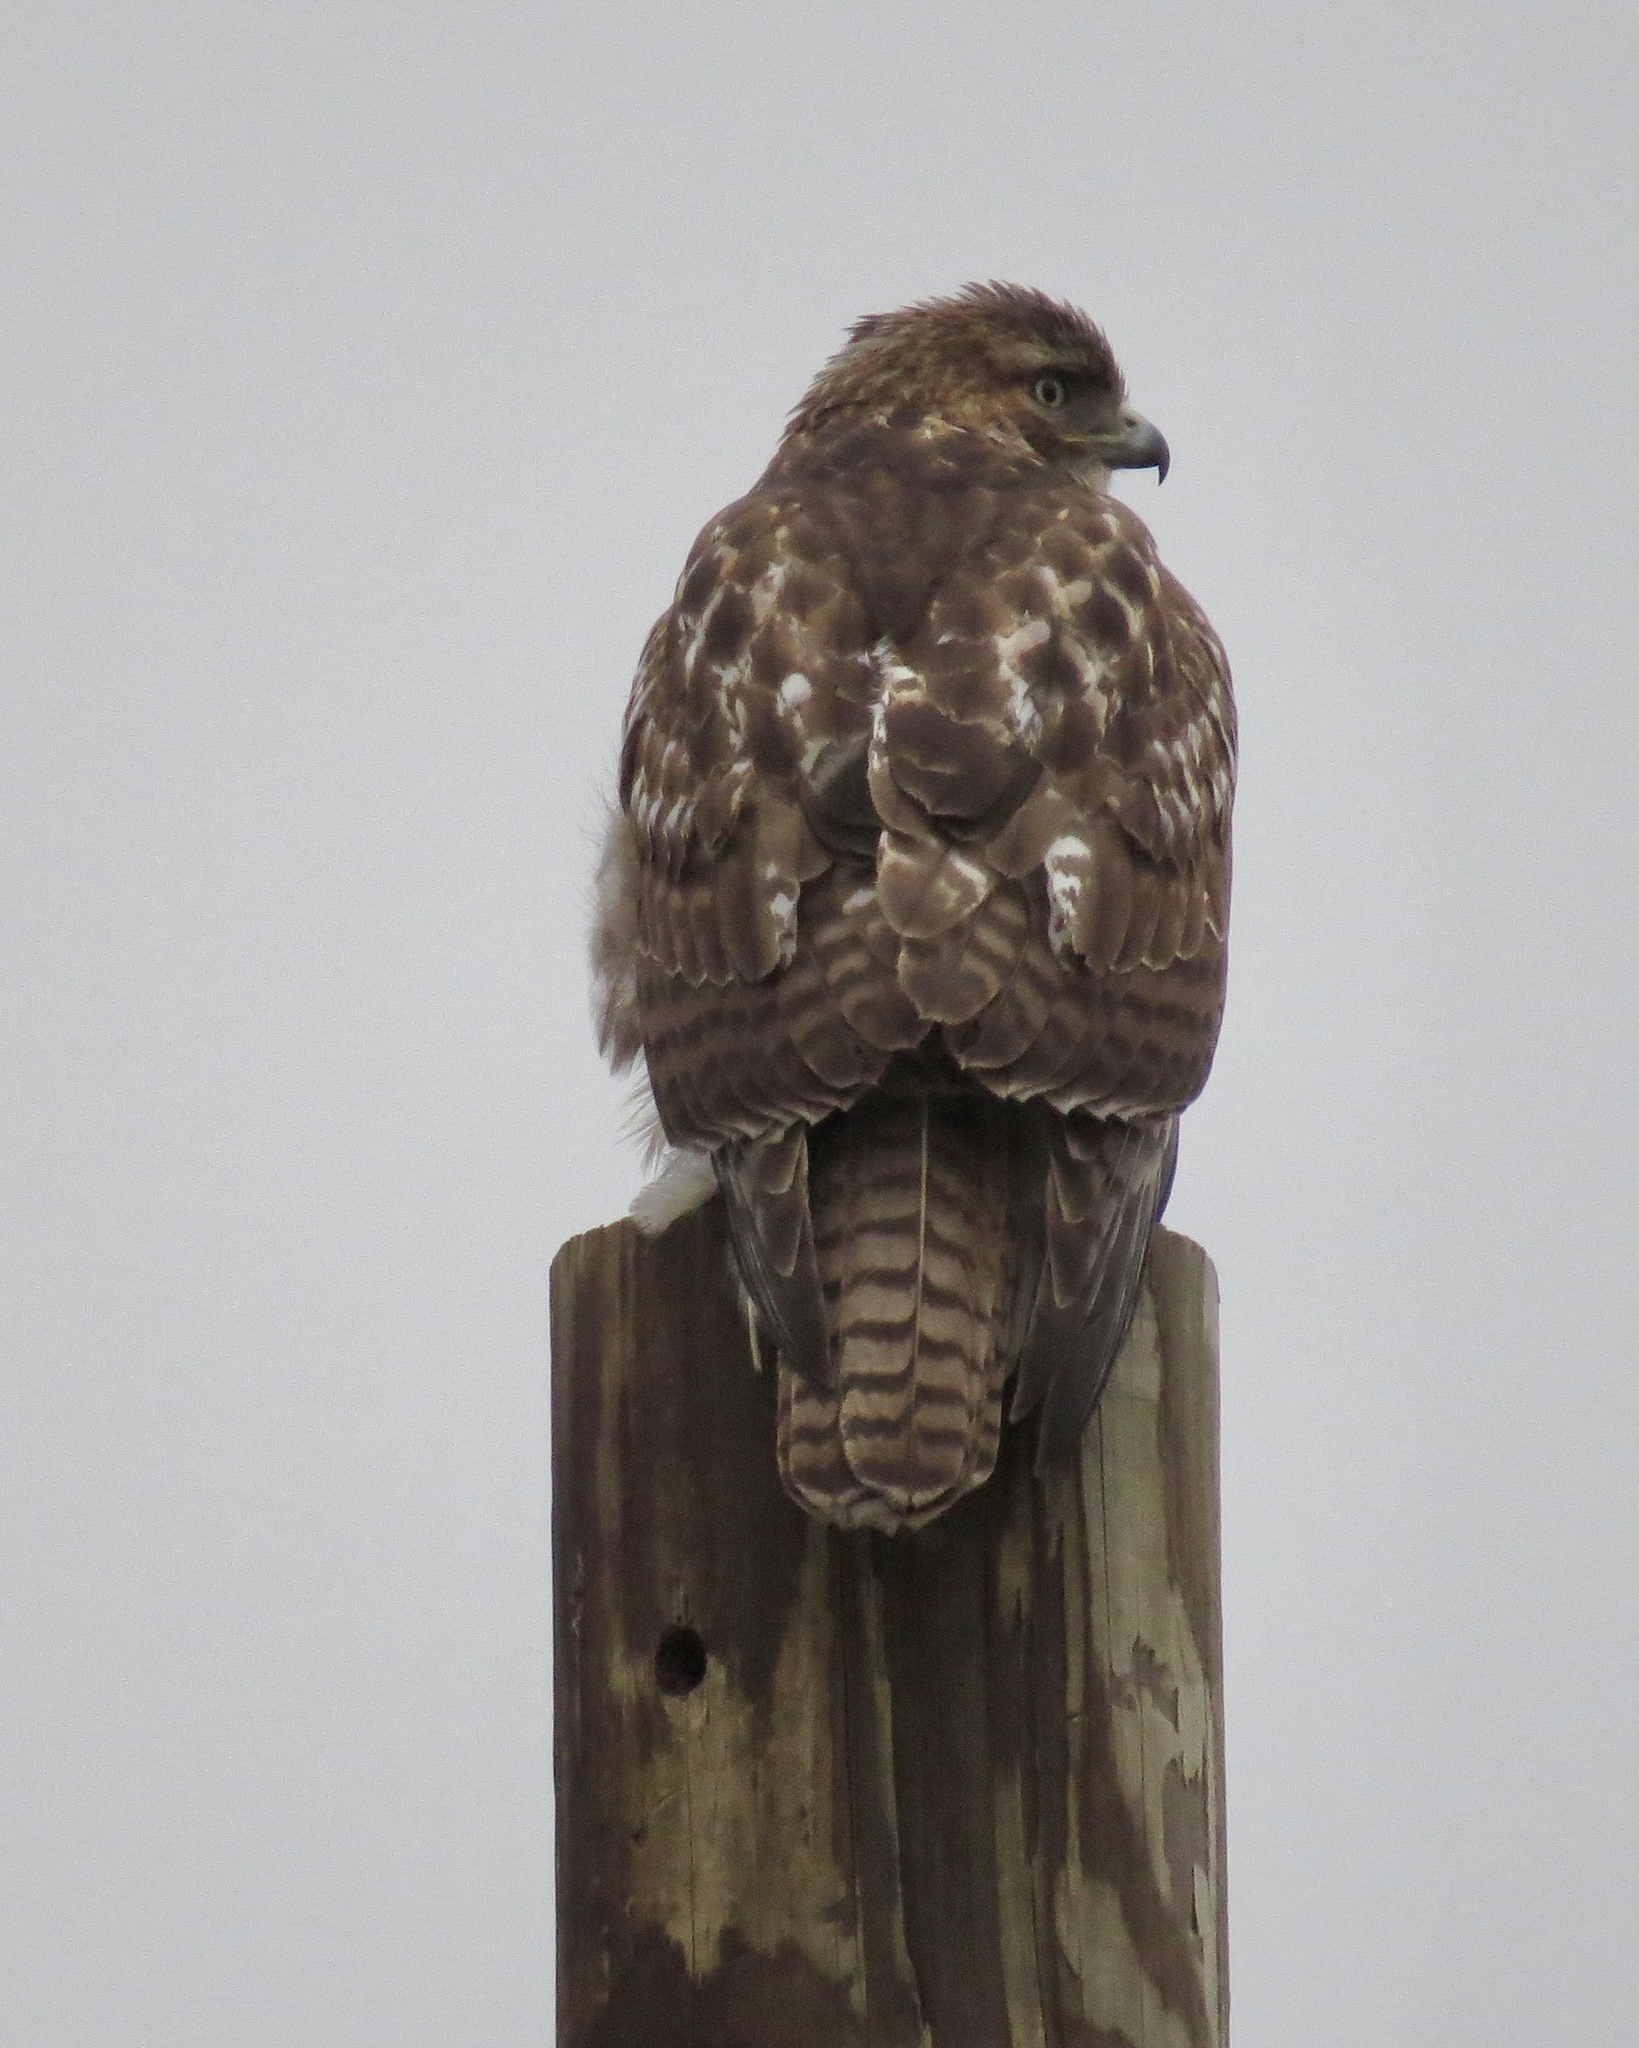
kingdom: Animalia
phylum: Chordata
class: Aves
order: Accipitriformes
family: Accipitridae
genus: Buteo
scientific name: Buteo jamaicensis
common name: Red-tailed hawk
